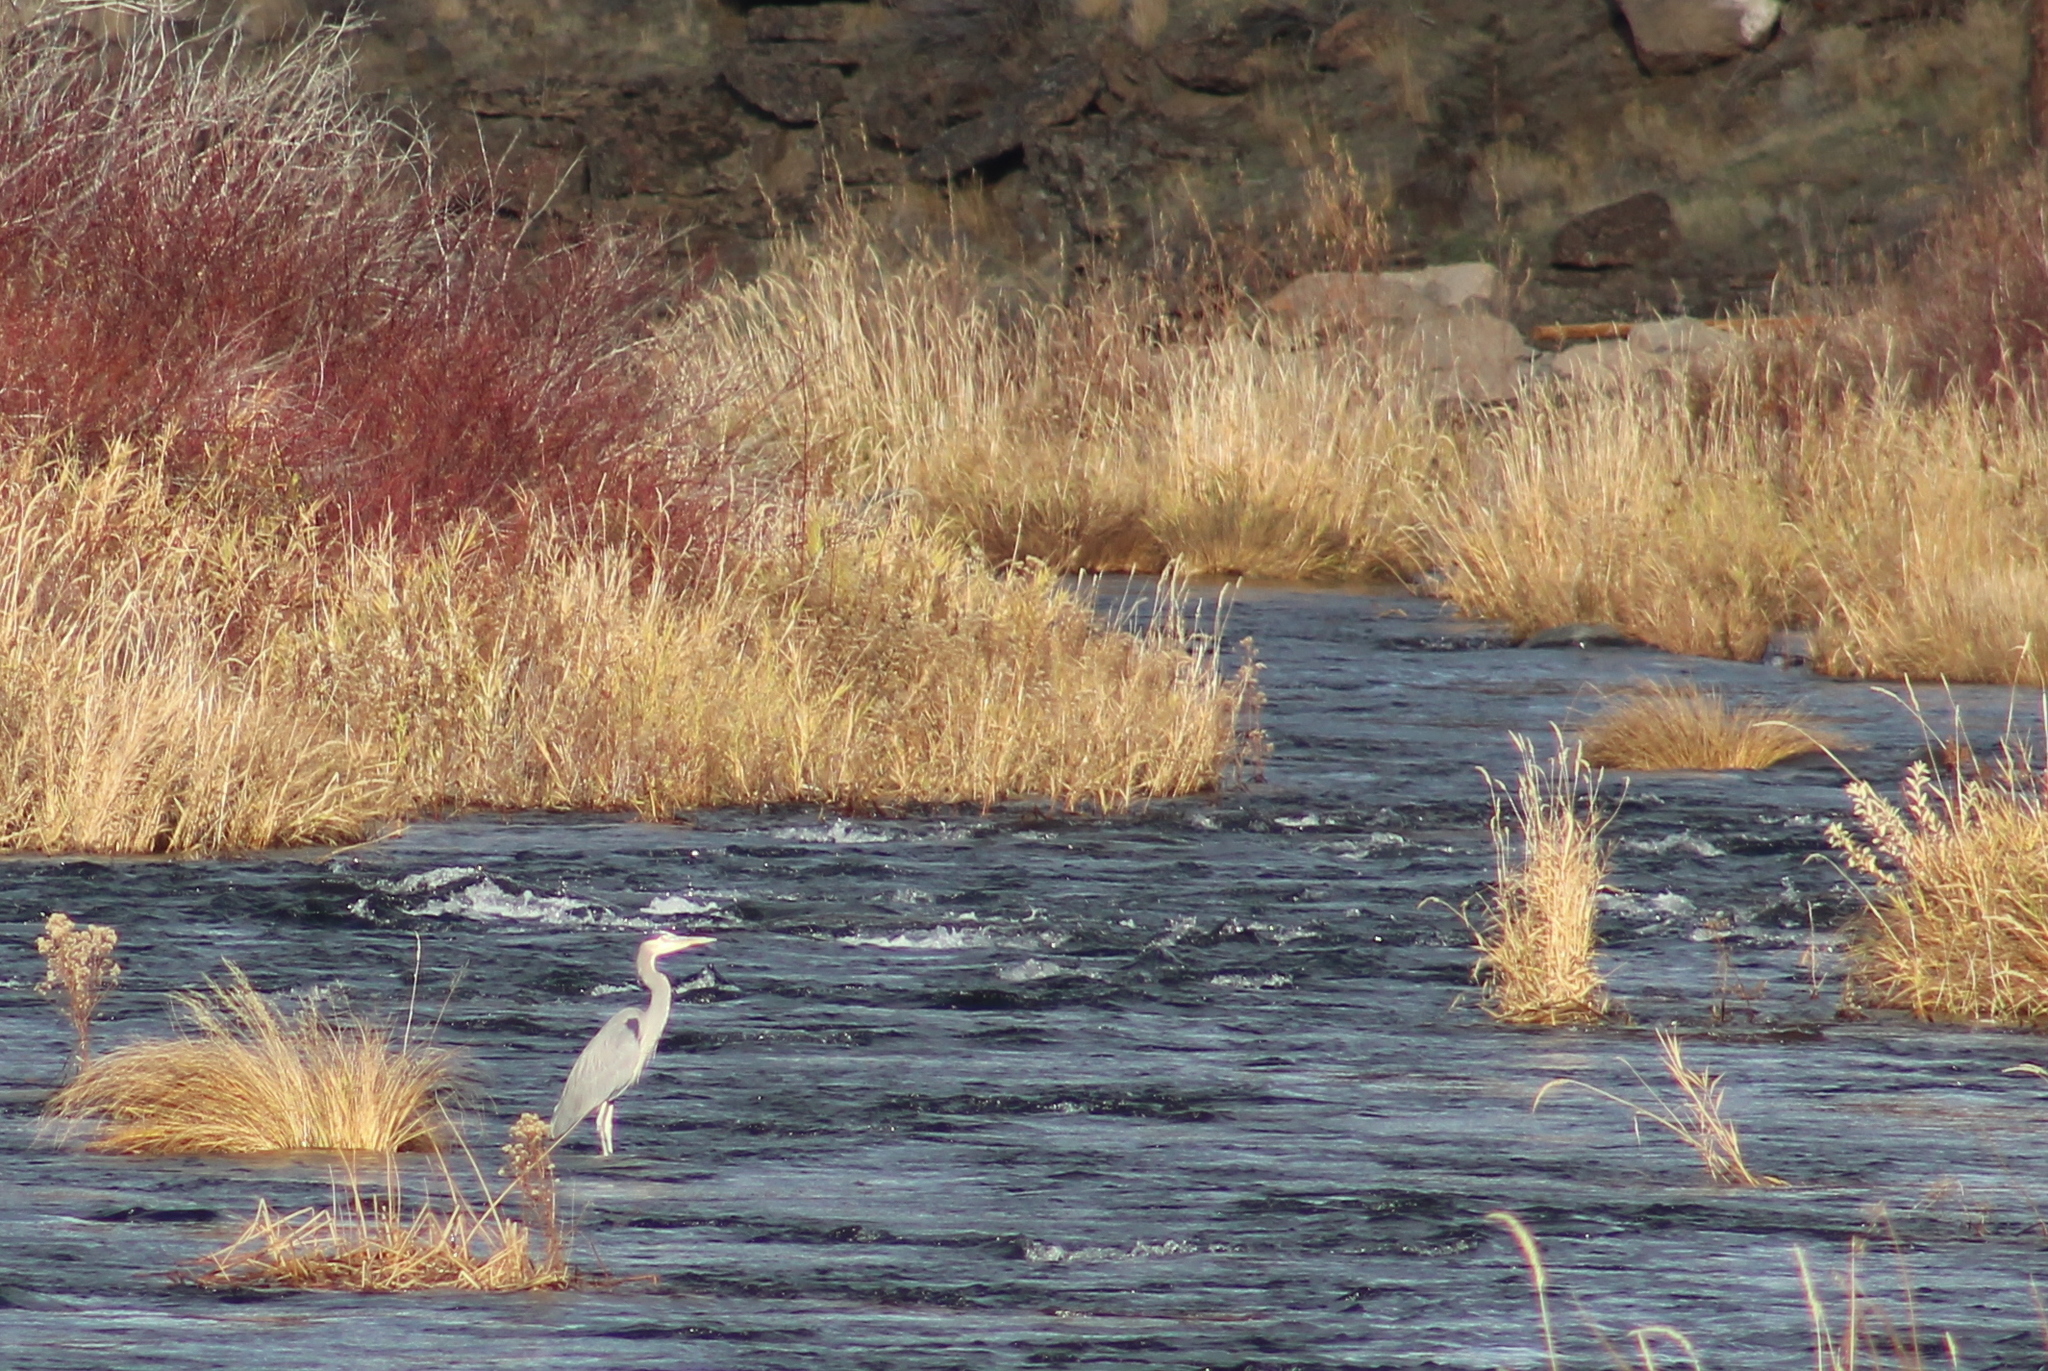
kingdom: Animalia
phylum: Chordata
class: Aves
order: Pelecaniformes
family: Ardeidae
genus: Ardea
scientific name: Ardea herodias
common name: Great blue heron
